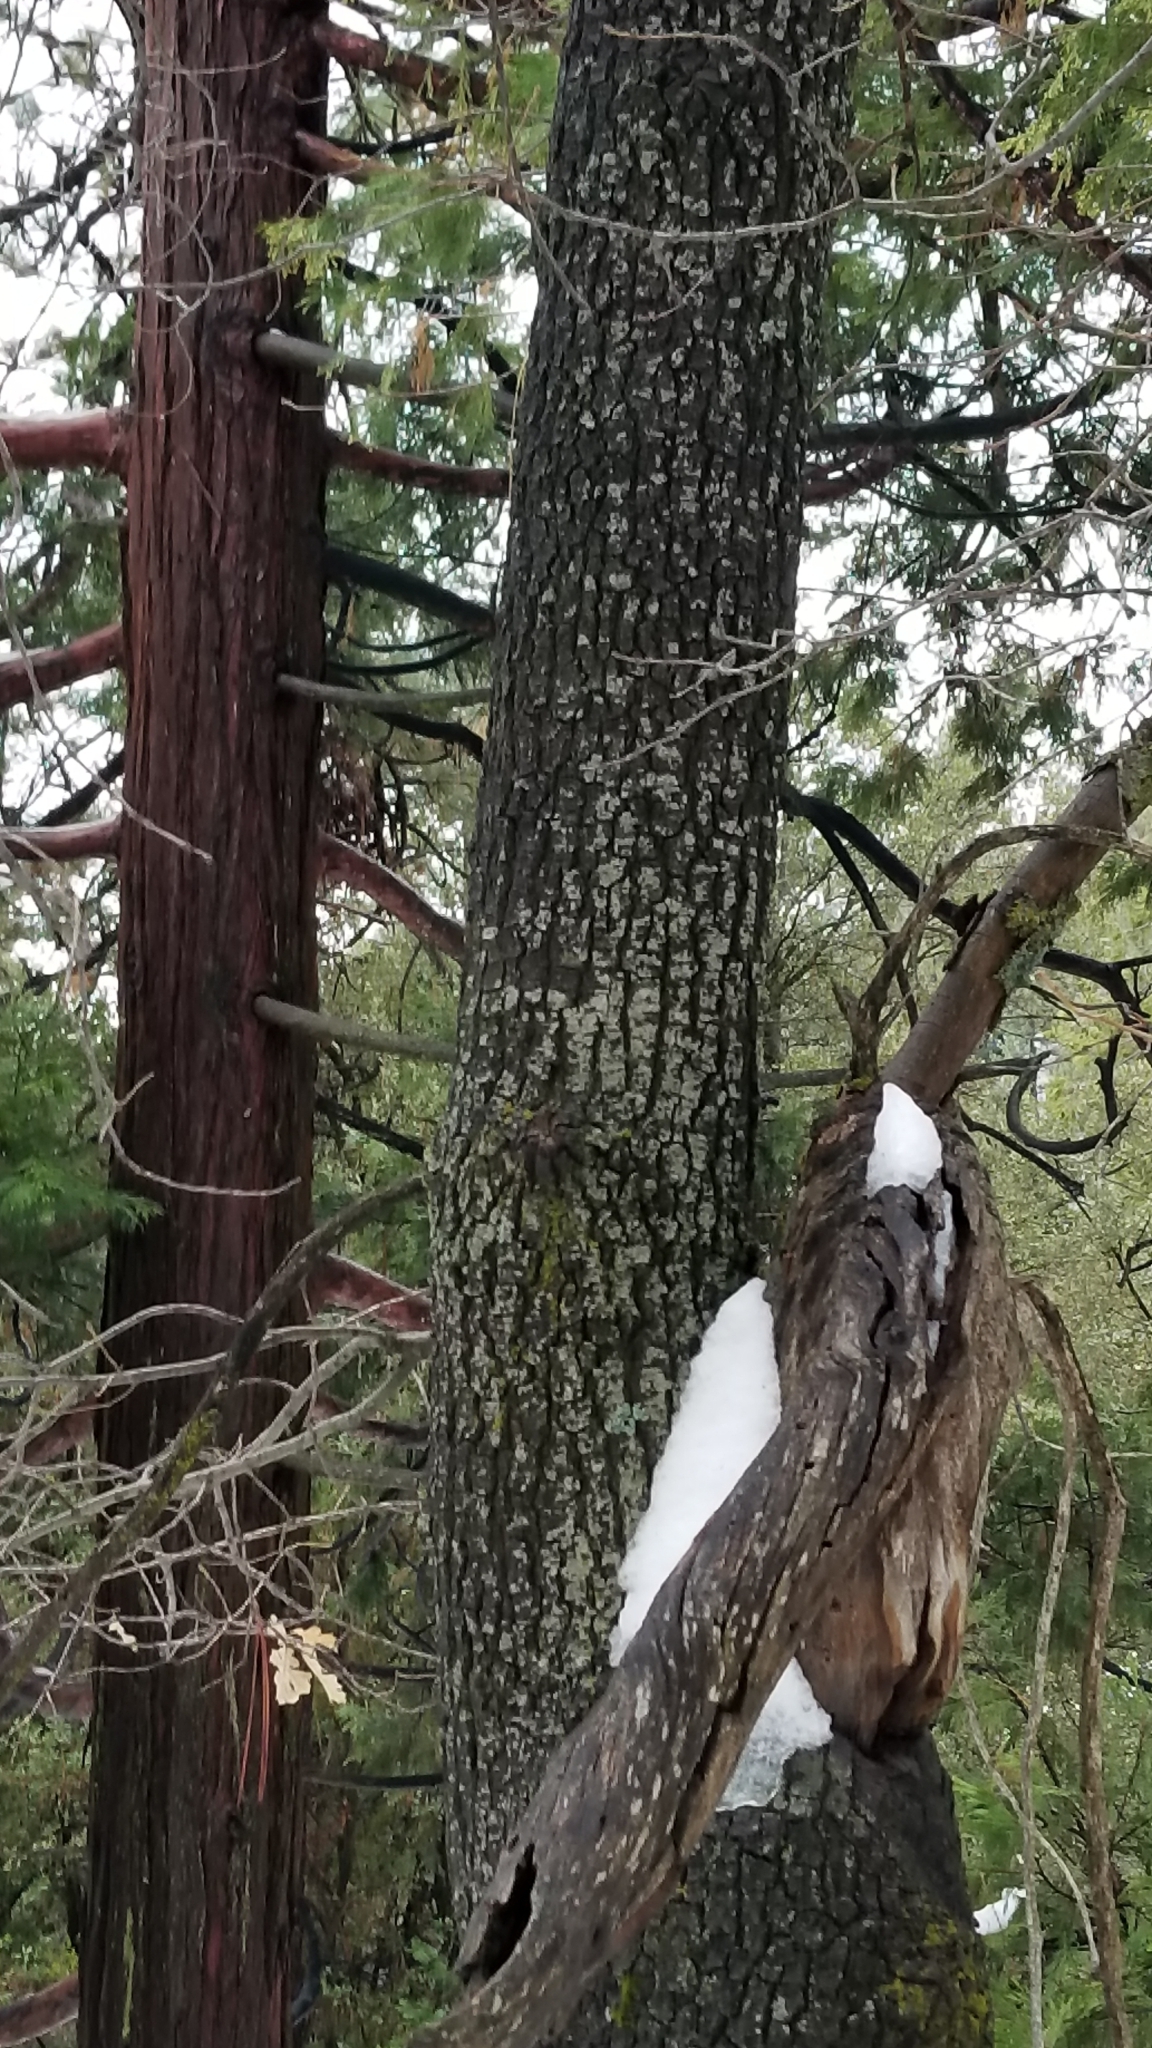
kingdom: Plantae
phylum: Tracheophyta
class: Magnoliopsida
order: Fagales
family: Fagaceae
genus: Quercus
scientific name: Quercus kelloggii
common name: California black oak
